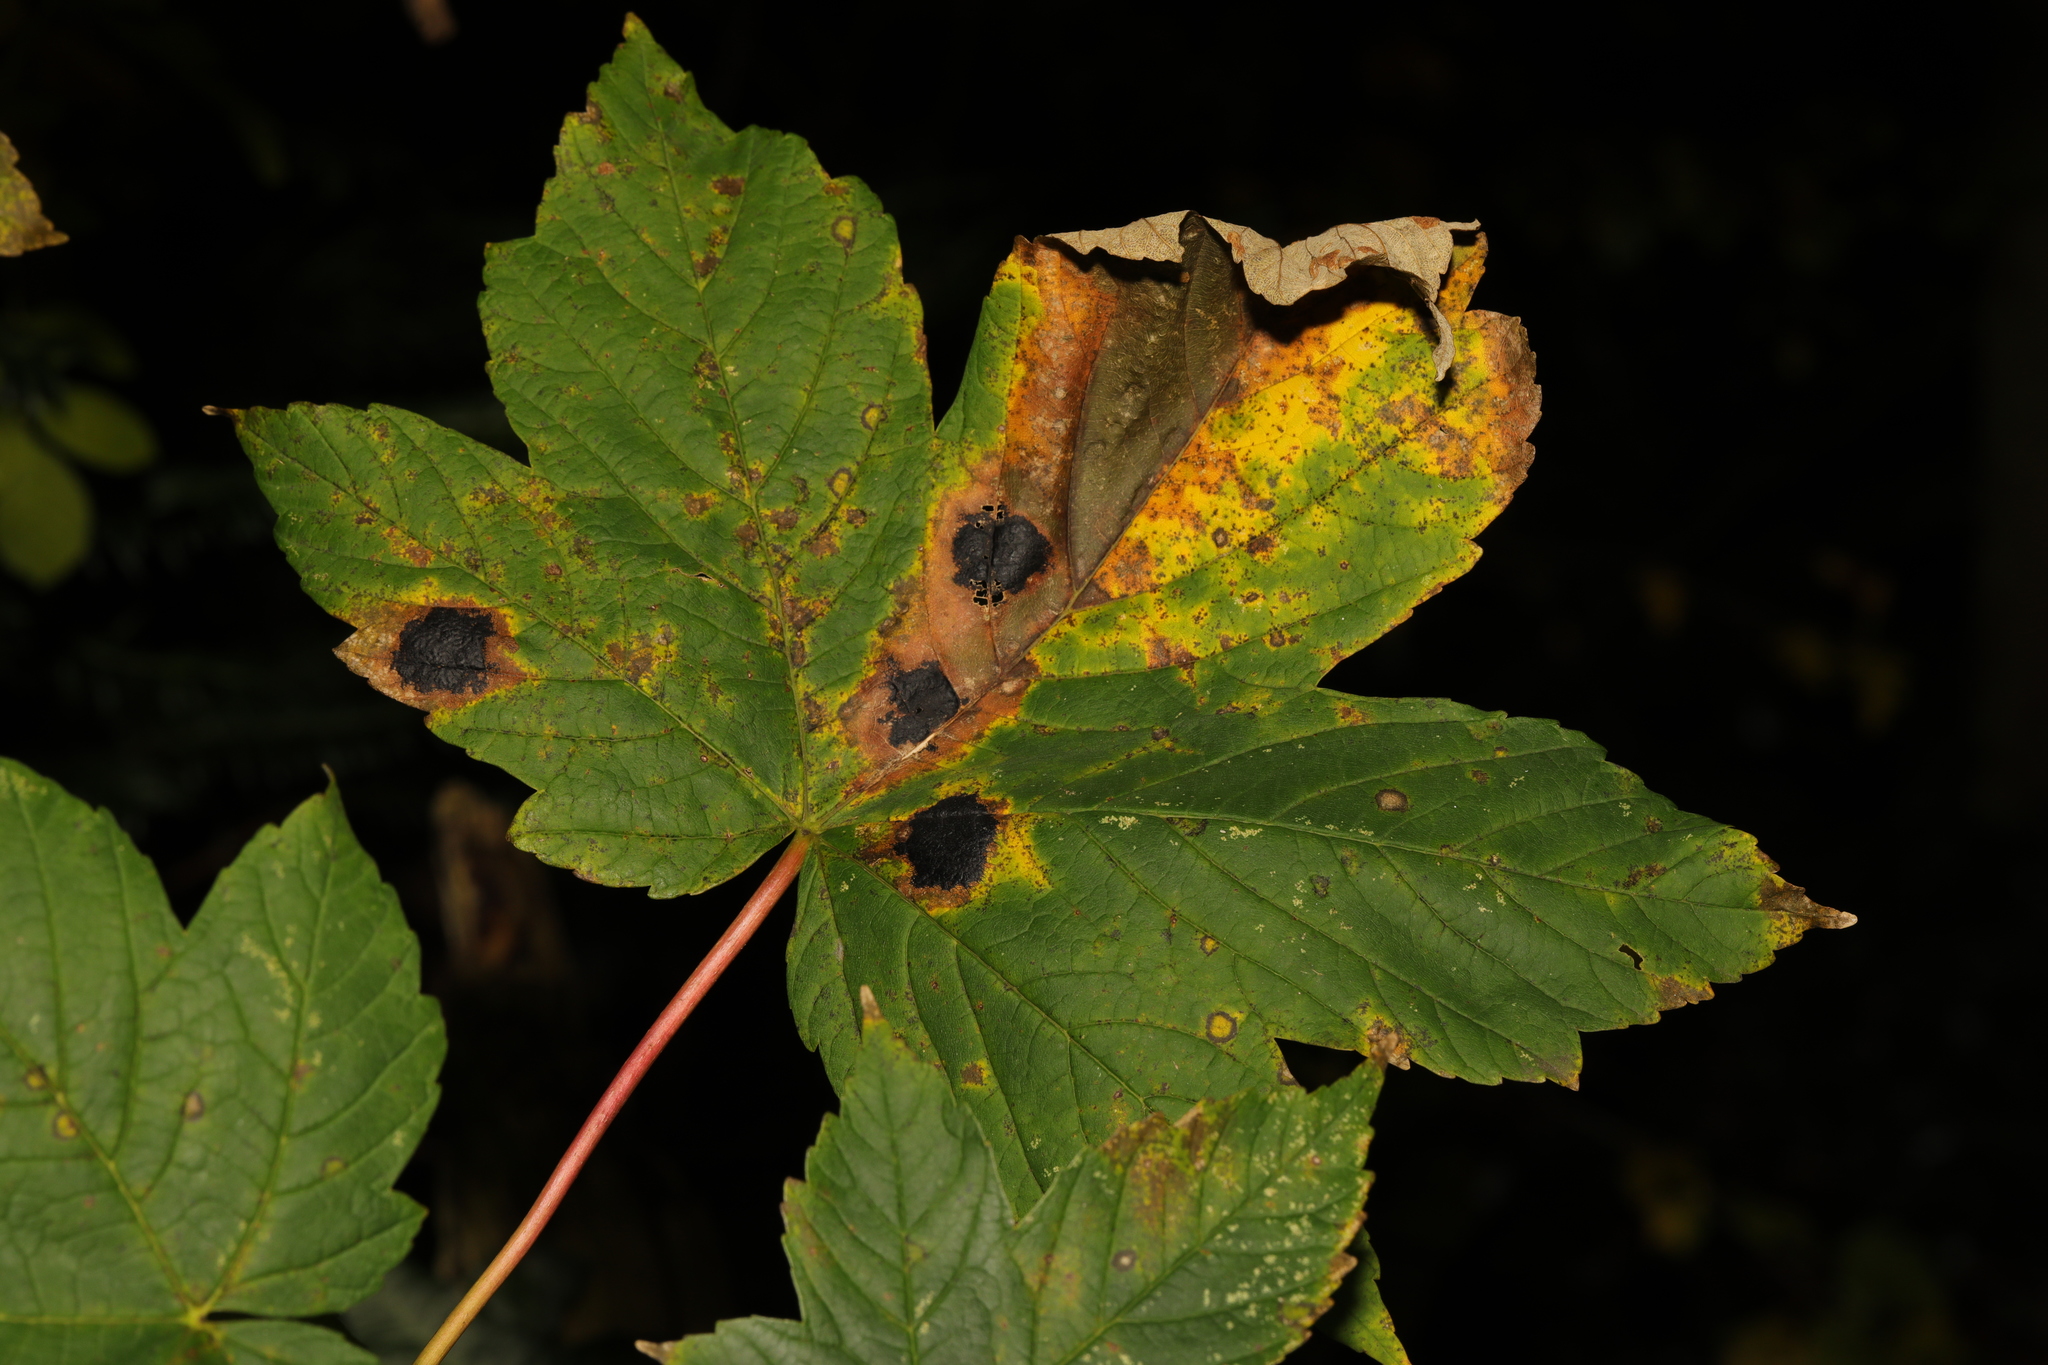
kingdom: Plantae
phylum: Tracheophyta
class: Magnoliopsida
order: Sapindales
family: Sapindaceae
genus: Acer
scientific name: Acer pseudoplatanus
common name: Sycamore
